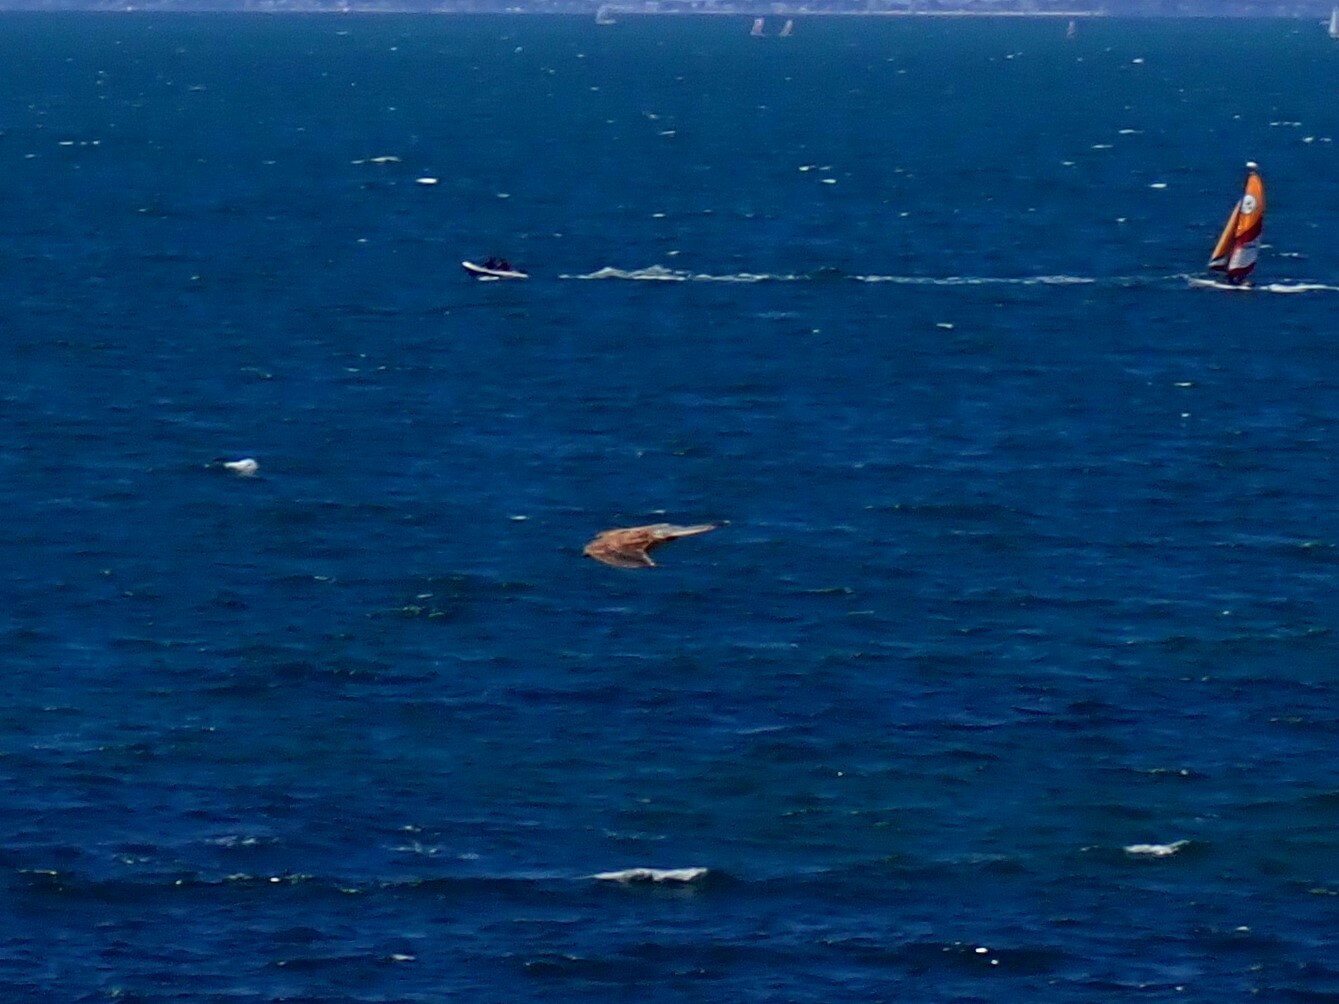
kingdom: Animalia
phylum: Chordata
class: Aves
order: Falconiformes
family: Falconidae
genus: Falco
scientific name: Falco tinnunculus
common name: Common kestrel
